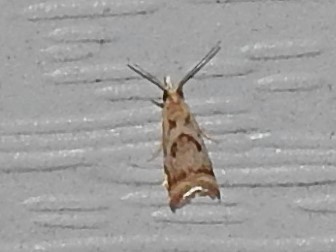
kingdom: Animalia
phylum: Arthropoda
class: Insecta
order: Lepidoptera
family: Crambidae
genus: Microcrambus
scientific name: Microcrambus elegans
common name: Elegant grass-veneer
